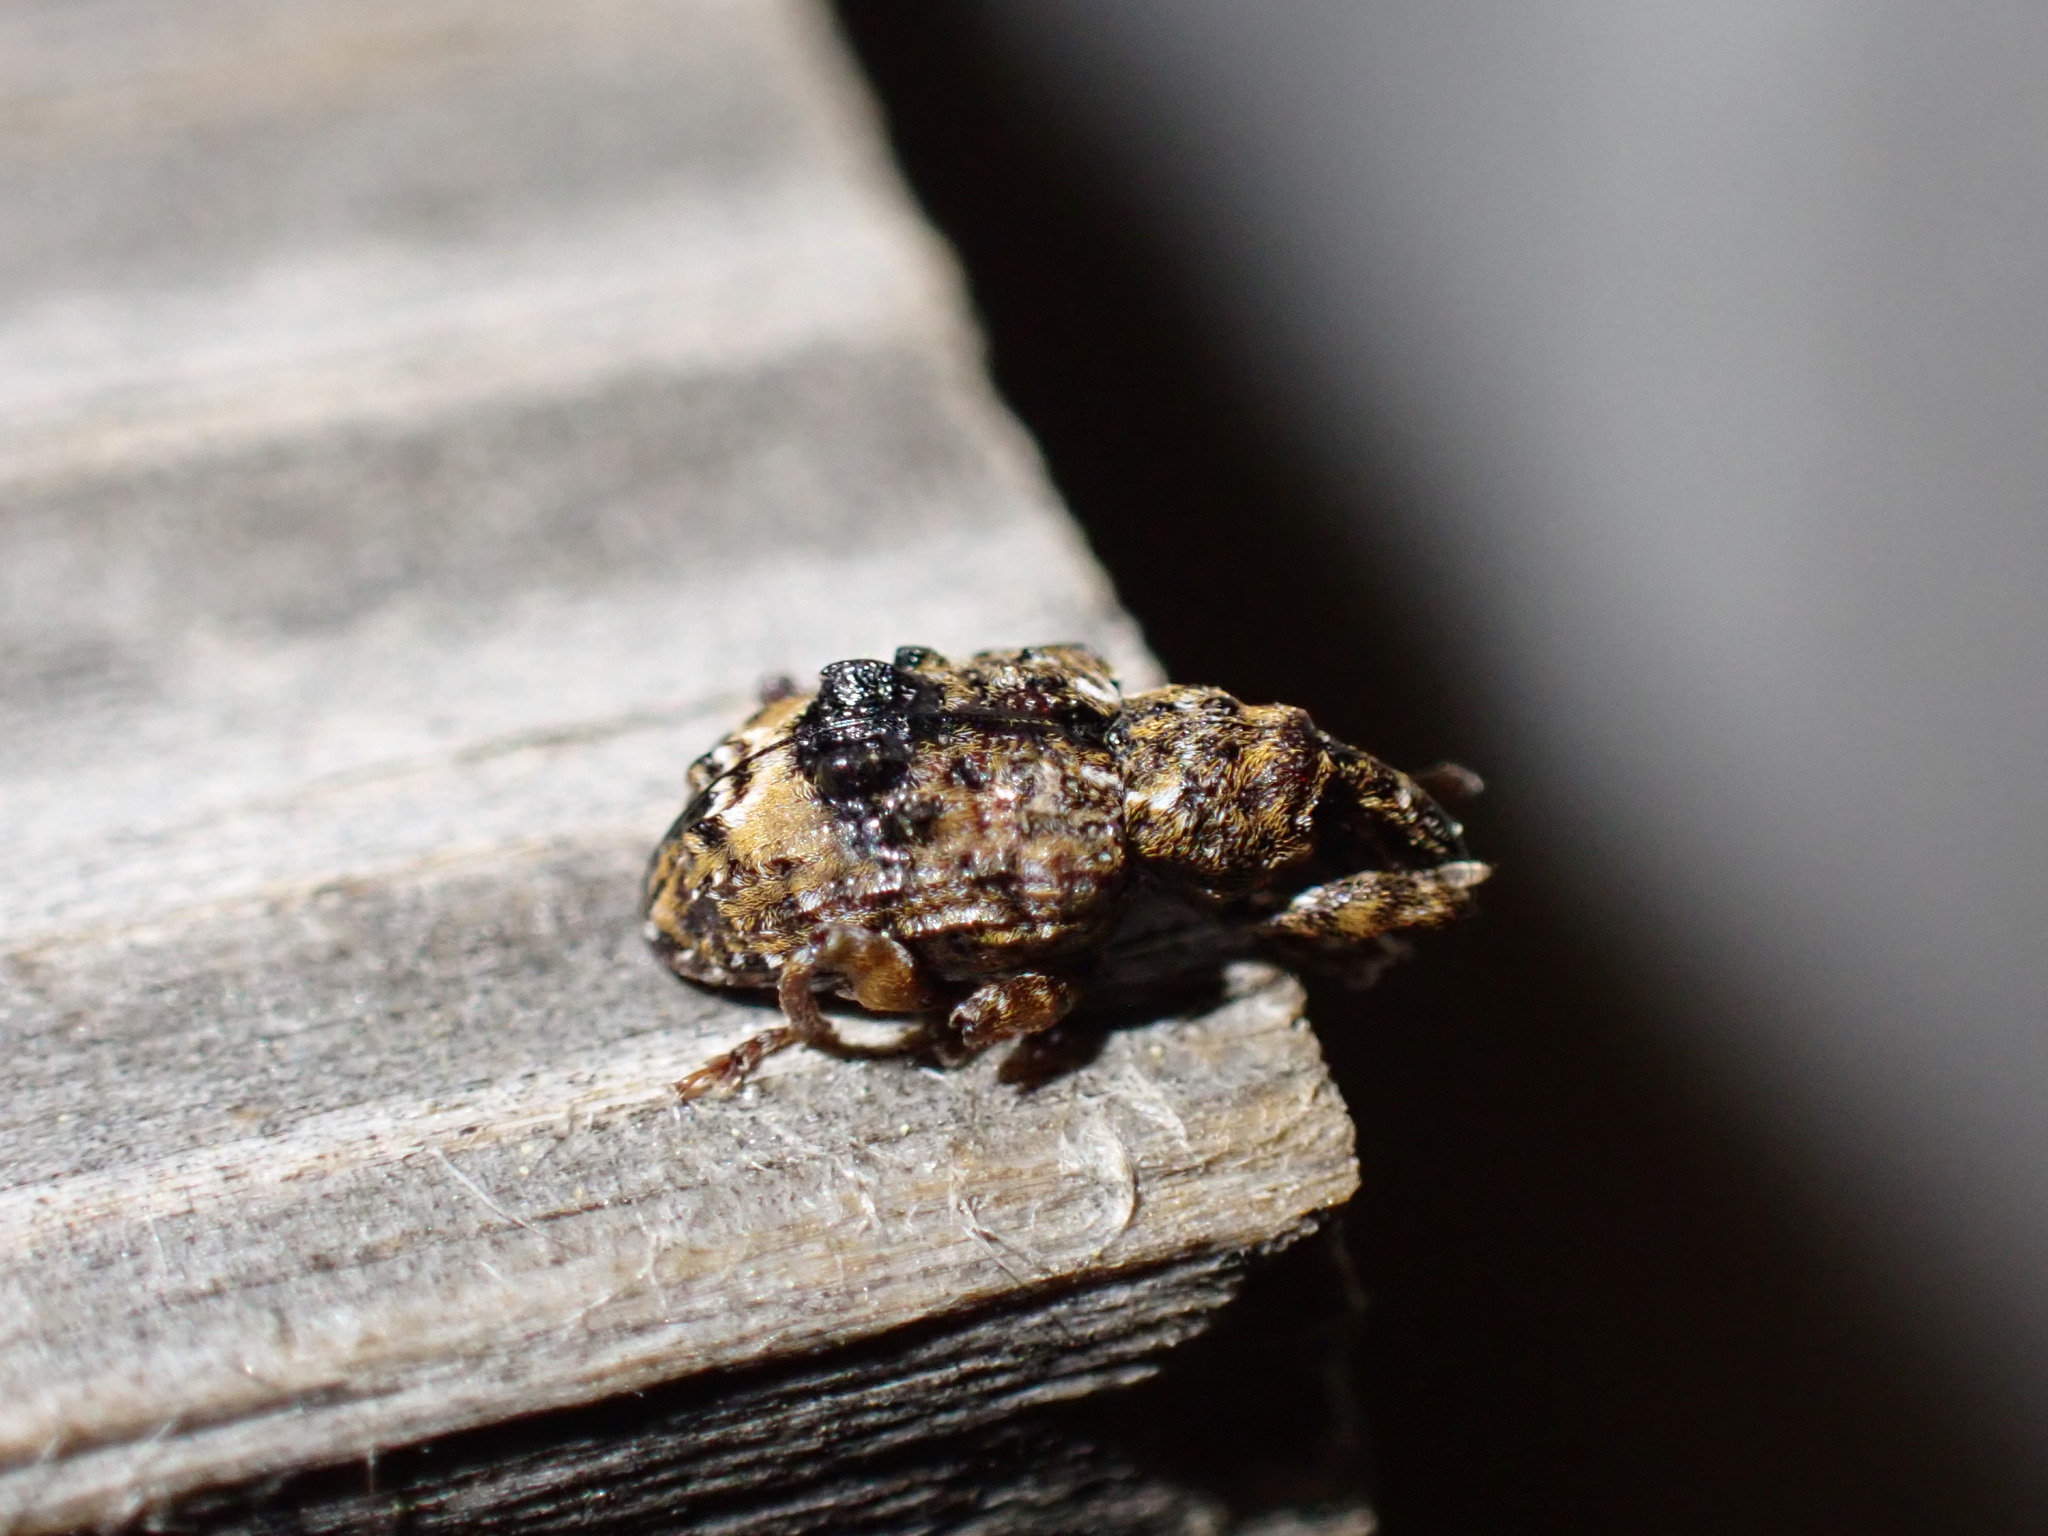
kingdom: Animalia
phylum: Arthropoda
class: Insecta
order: Coleoptera
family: Curculionidae
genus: Conotrachelus
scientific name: Conotrachelus nenuphar
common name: Plum curculio
